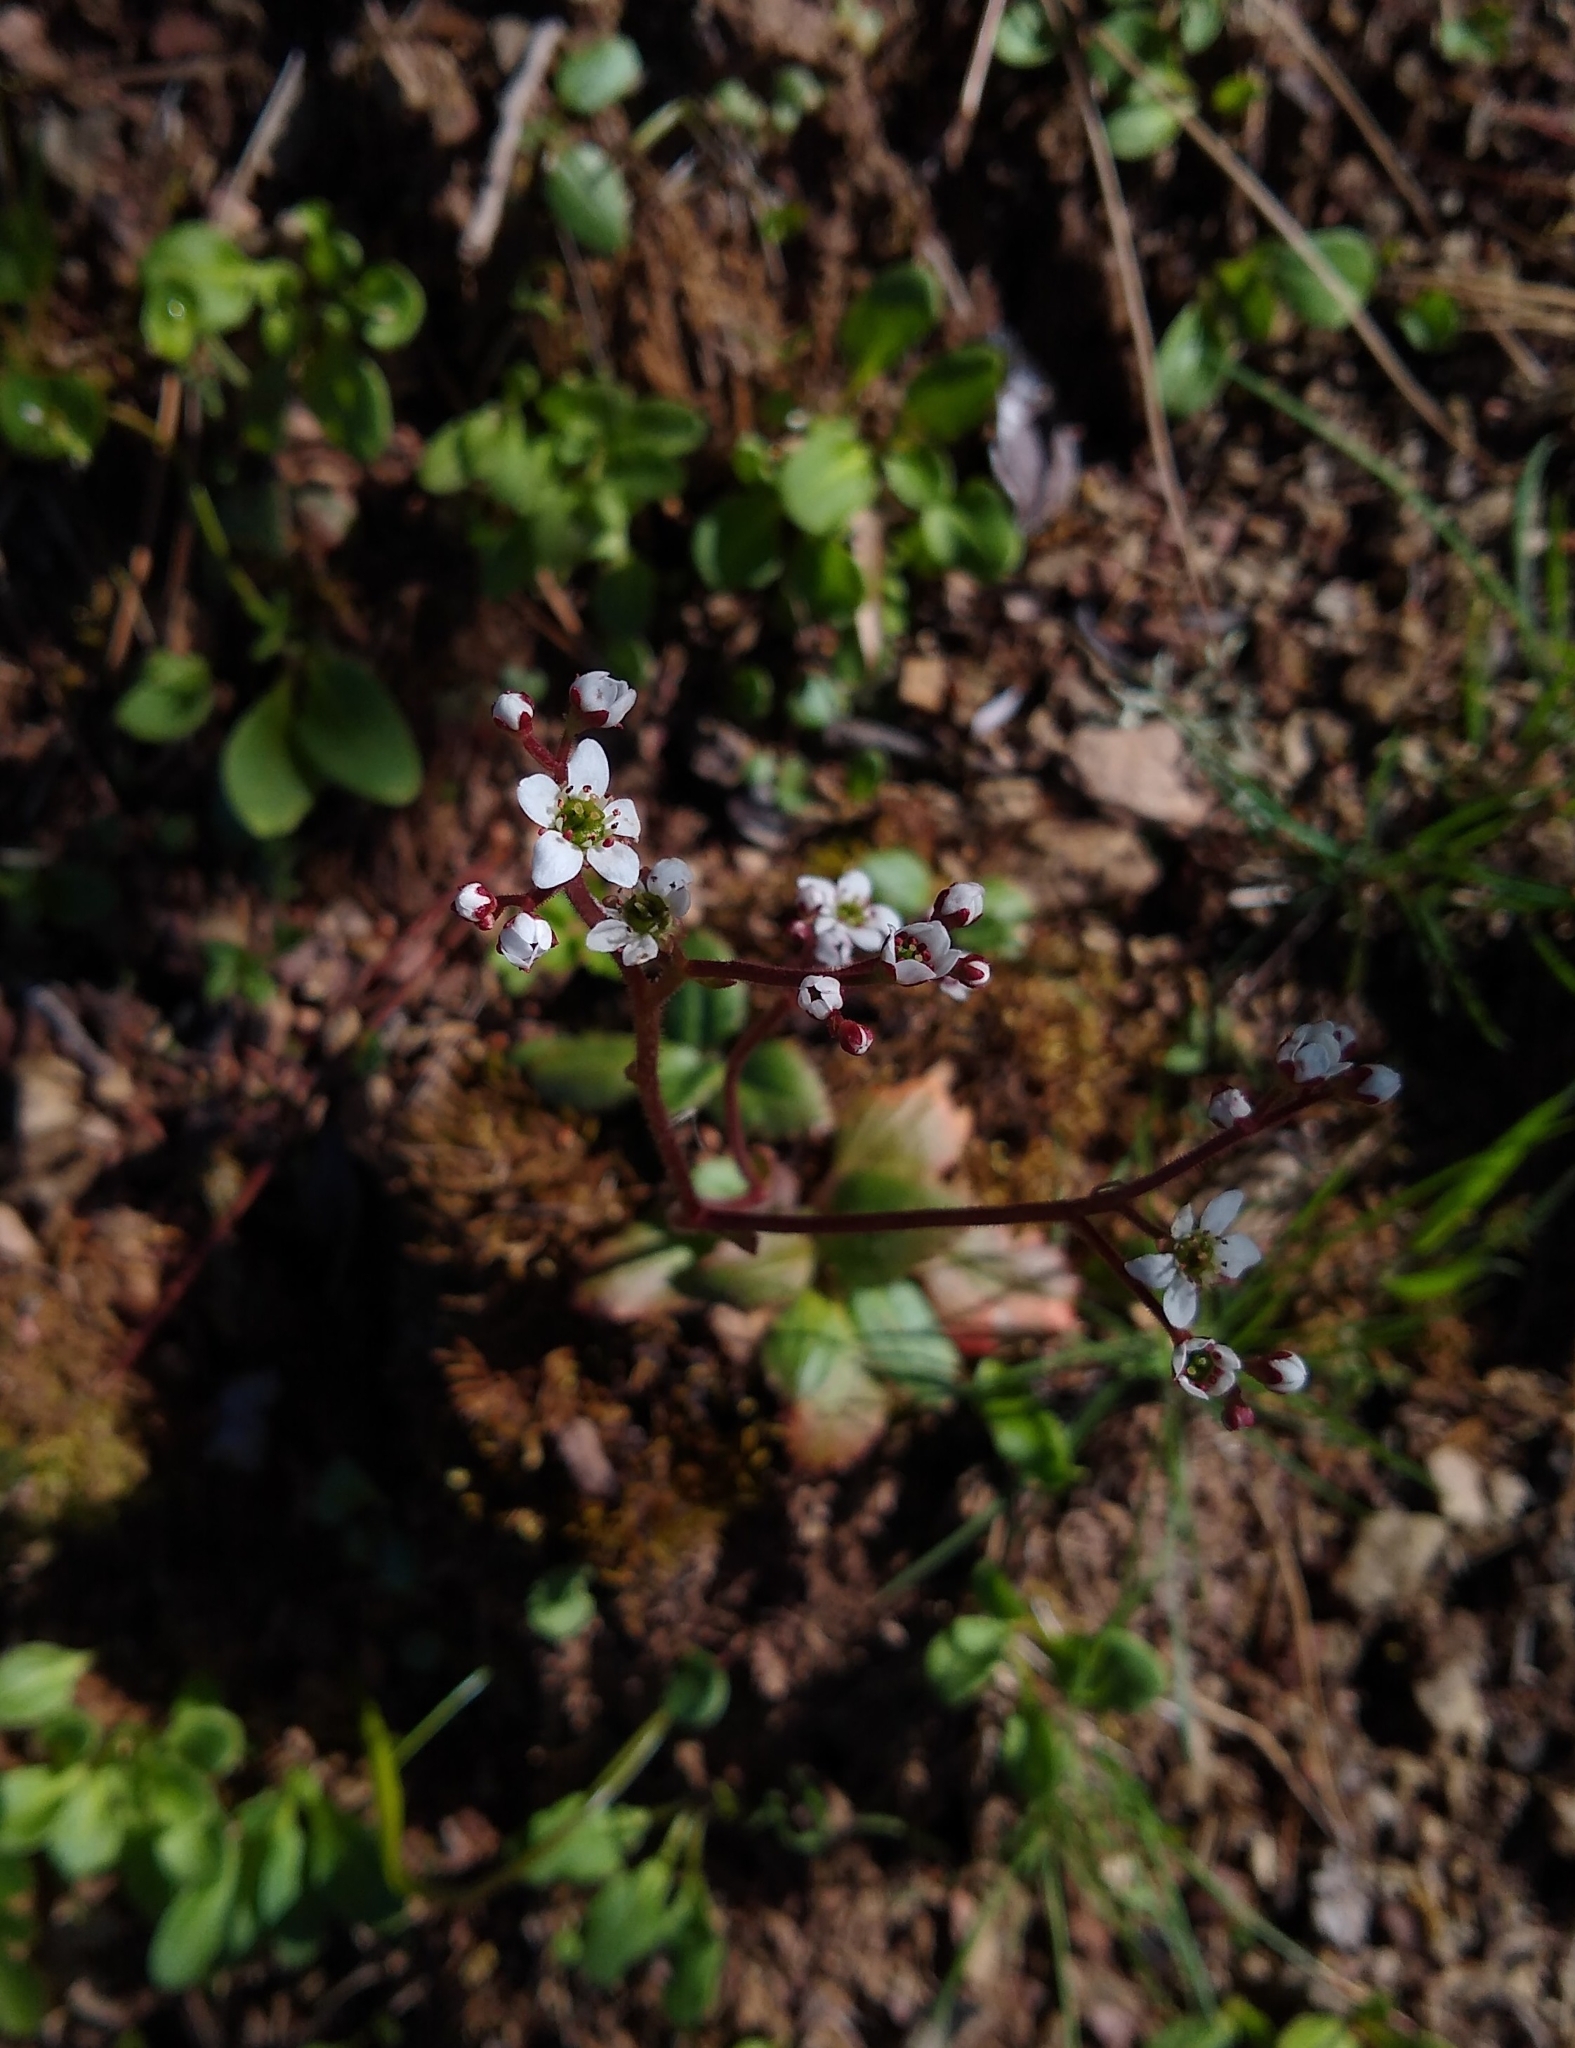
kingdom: Plantae
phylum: Tracheophyta
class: Magnoliopsida
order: Saxifragales
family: Saxifragaceae
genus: Micranthes
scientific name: Micranthes californica
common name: California saxifrage
